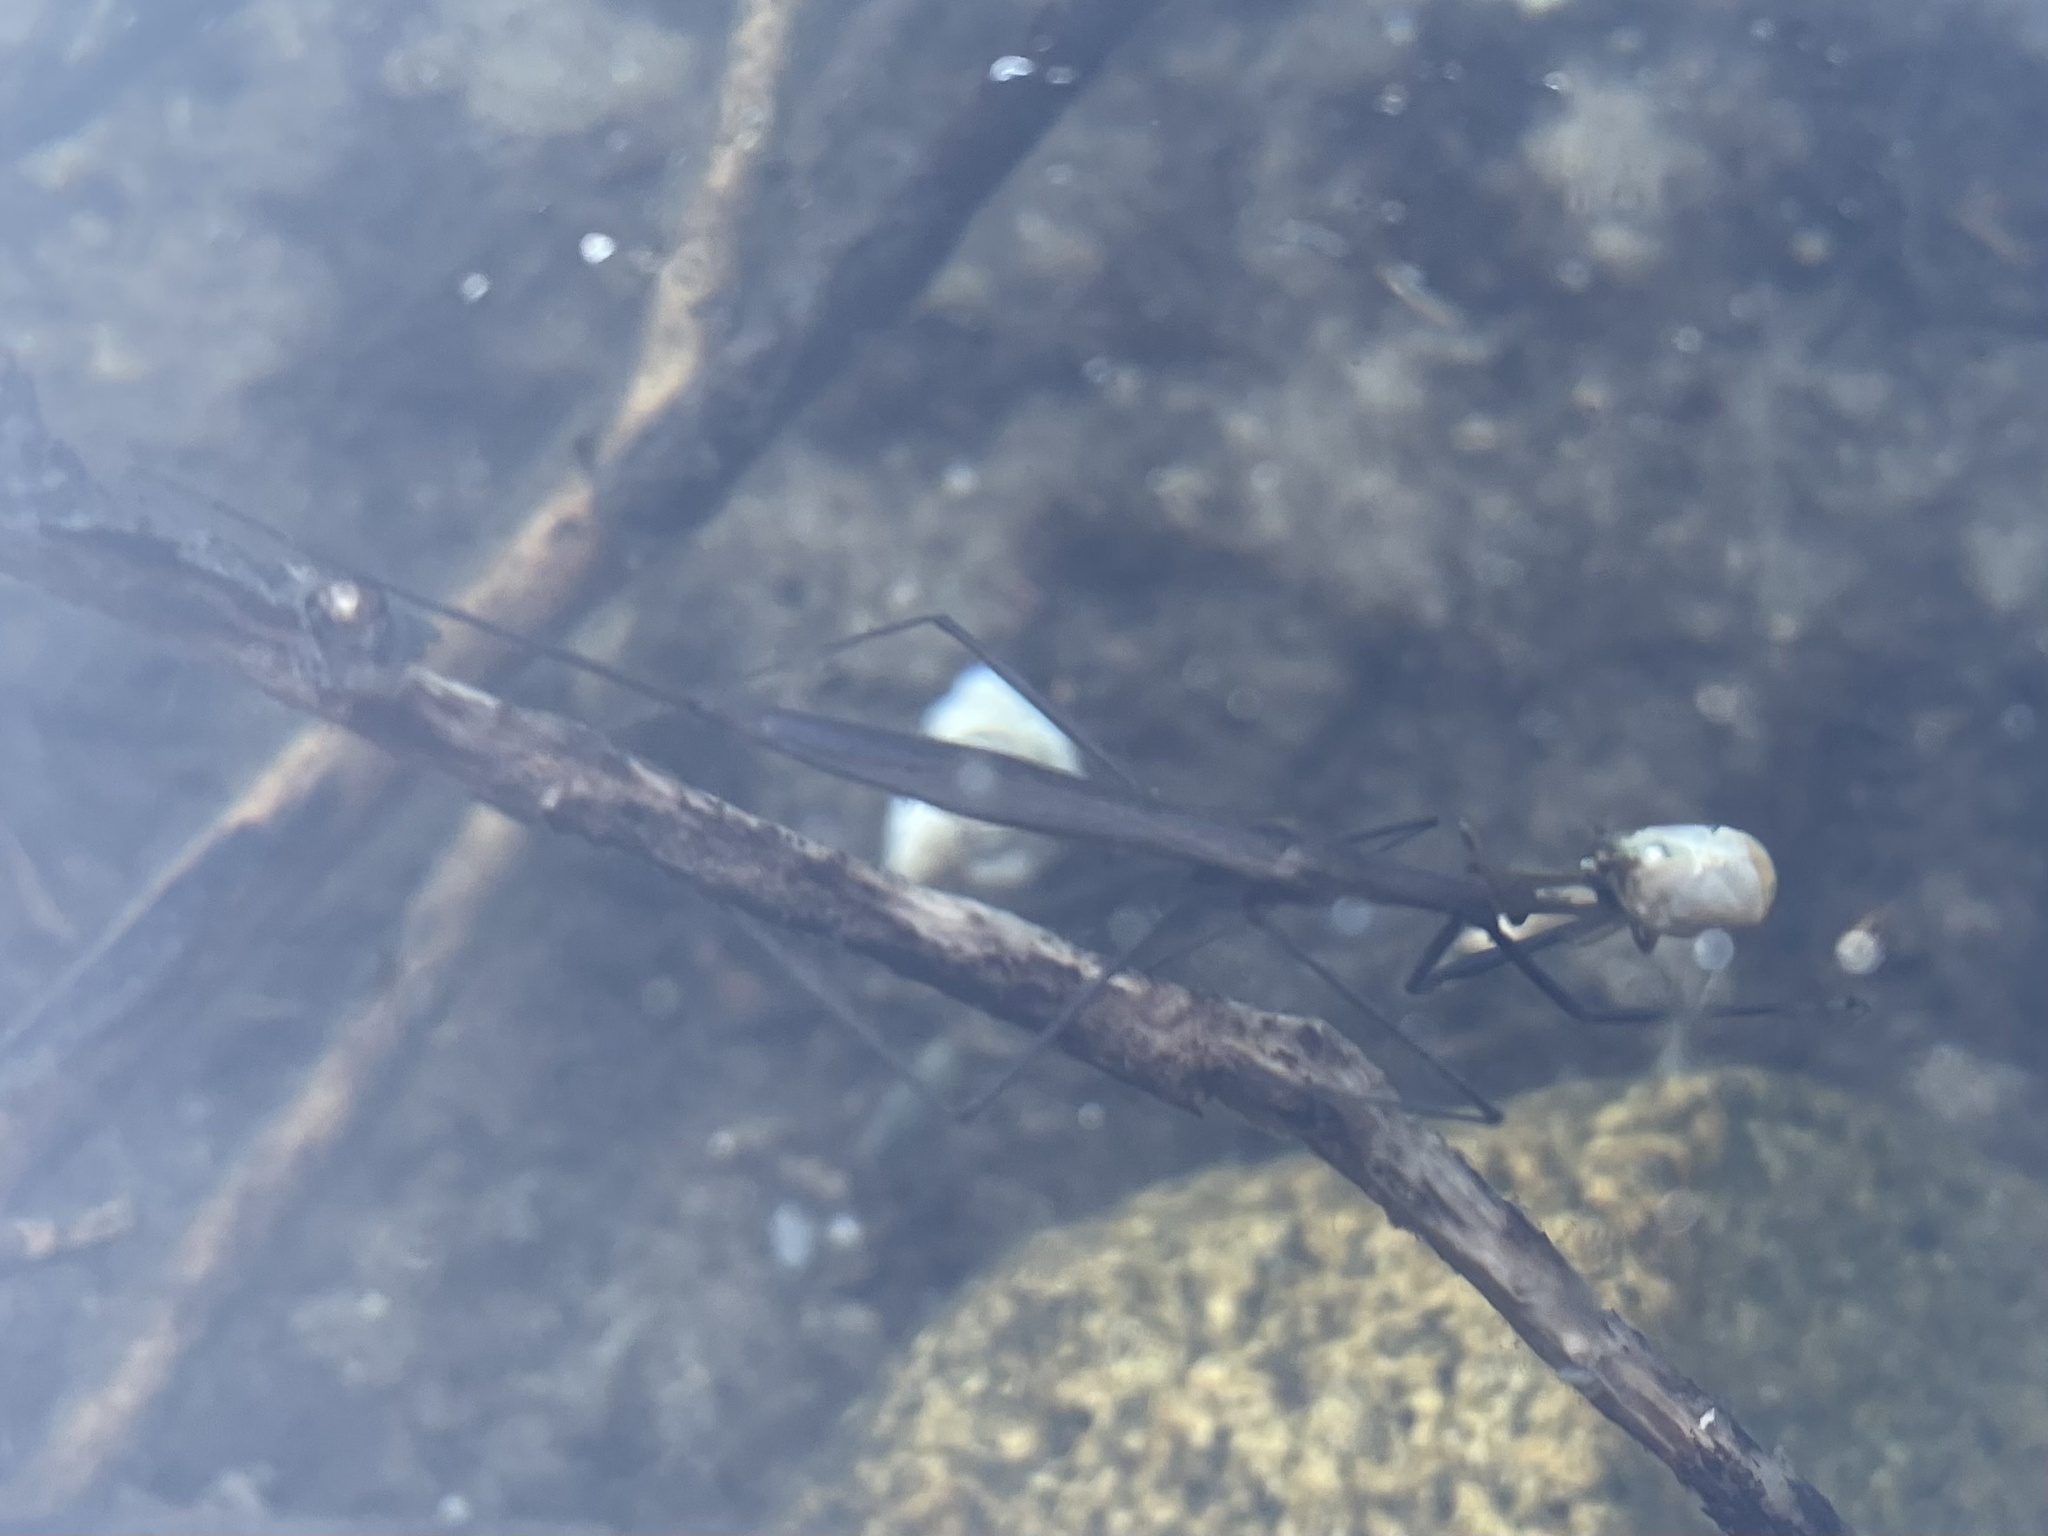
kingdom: Animalia
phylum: Arthropoda
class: Insecta
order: Hemiptera
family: Nepidae
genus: Ranatra
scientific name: Ranatra fusca
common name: Brown waterscorpion
